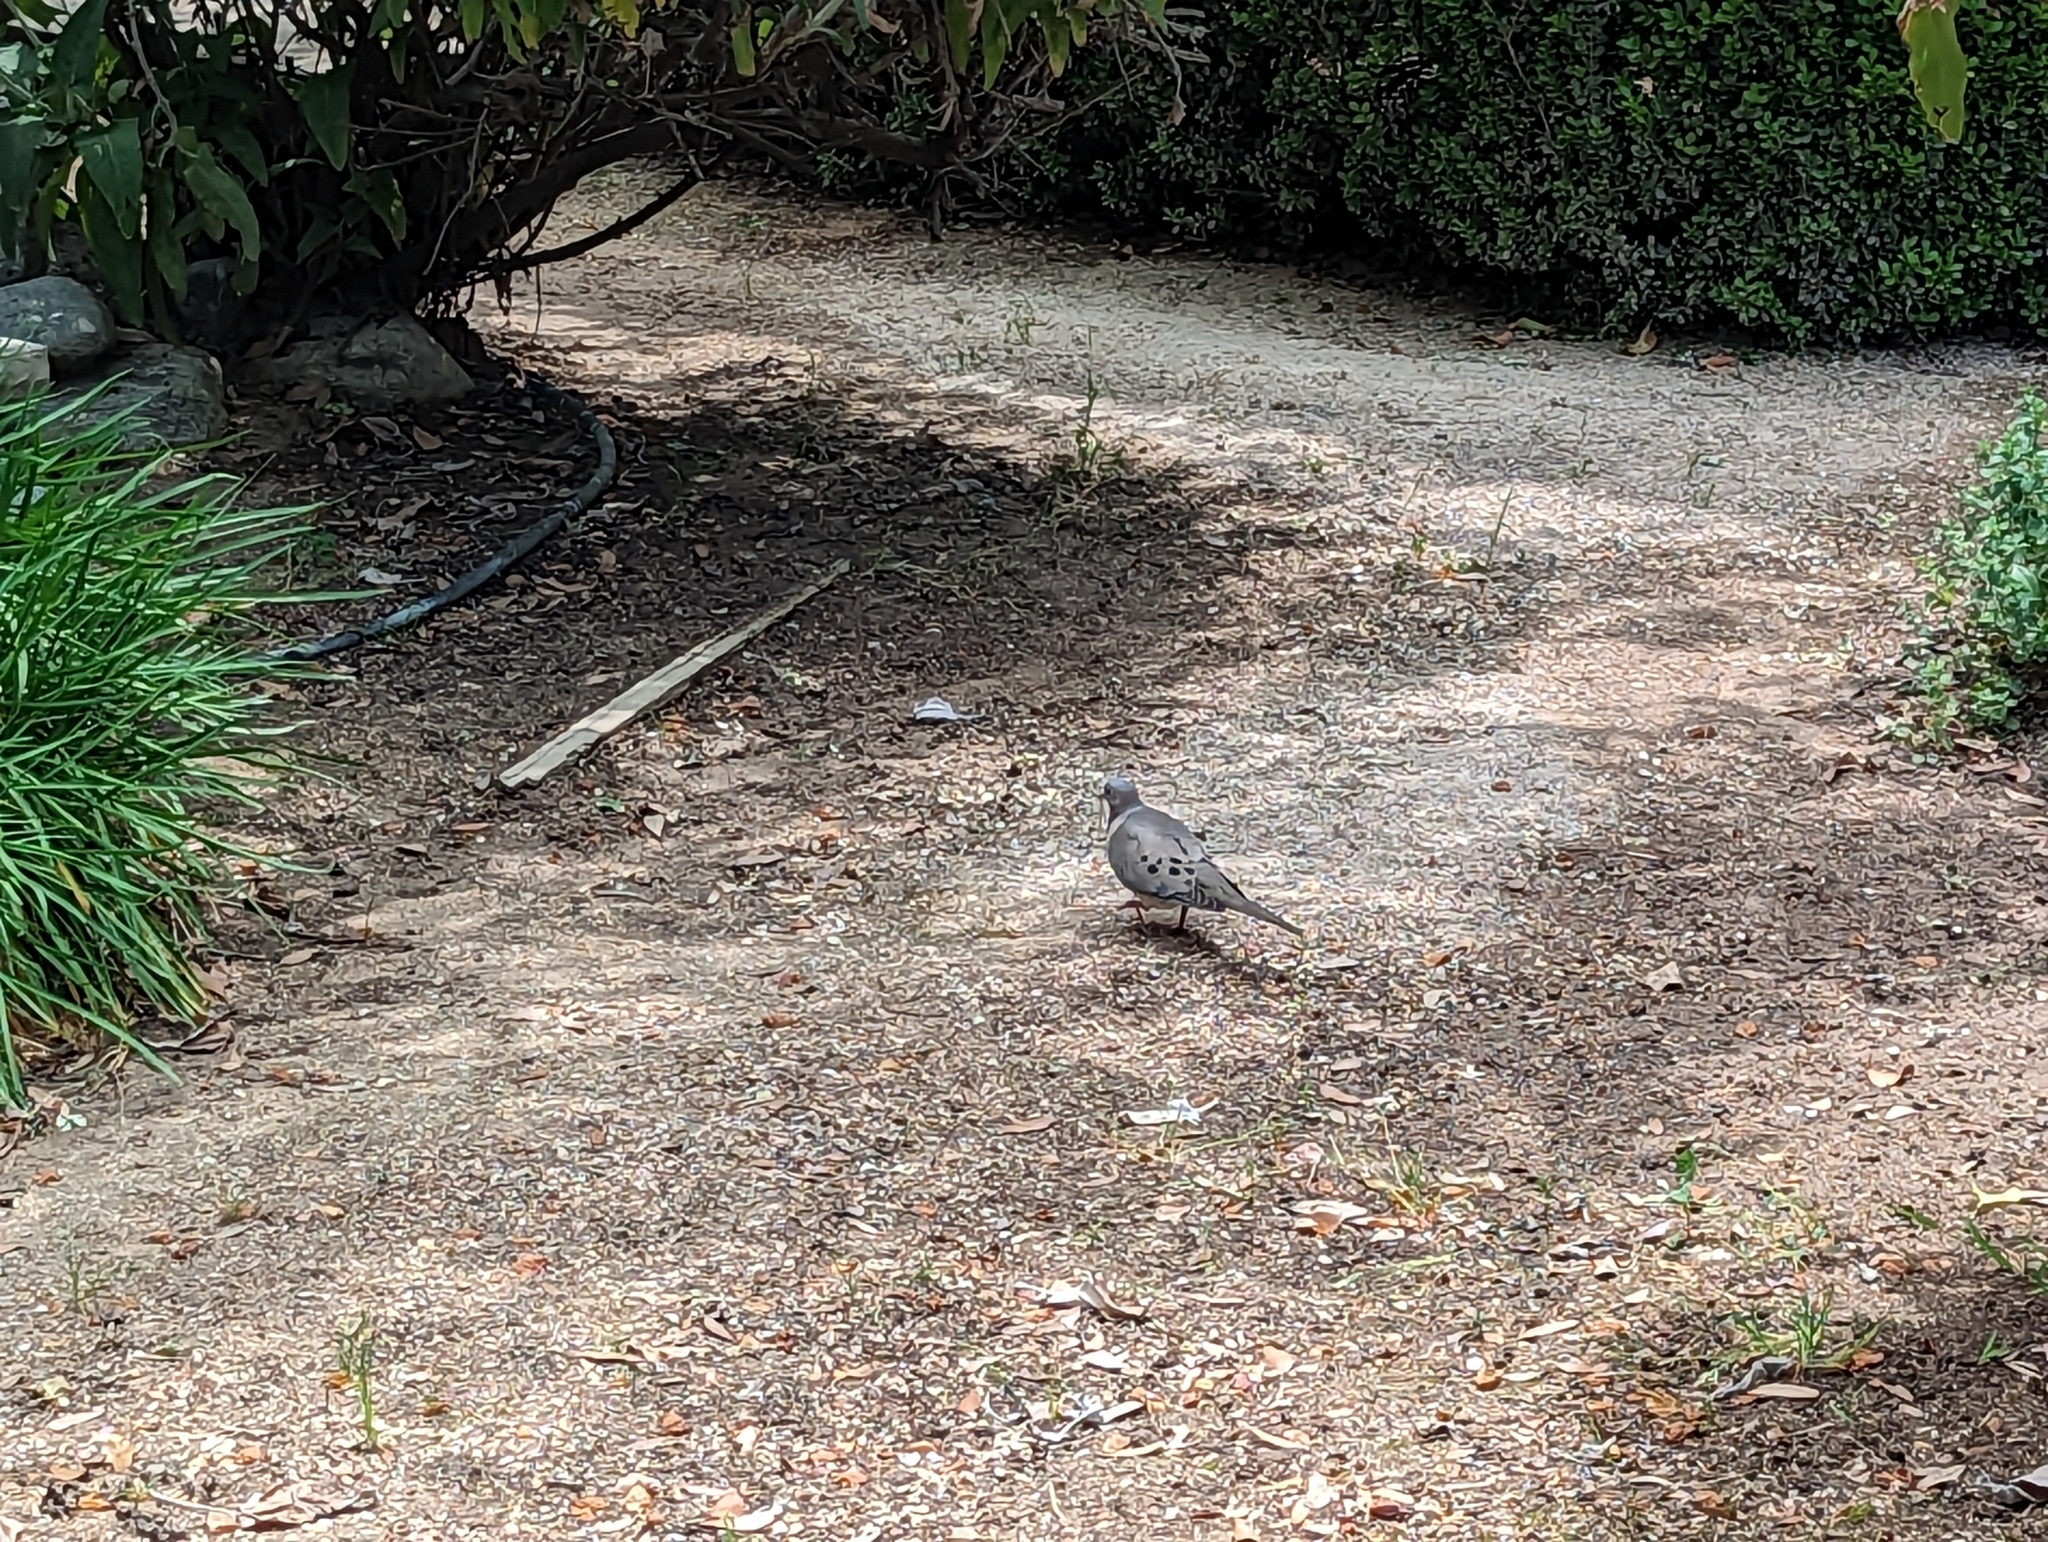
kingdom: Animalia
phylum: Chordata
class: Aves
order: Columbiformes
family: Columbidae
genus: Zenaida
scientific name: Zenaida macroura
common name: Mourning dove
